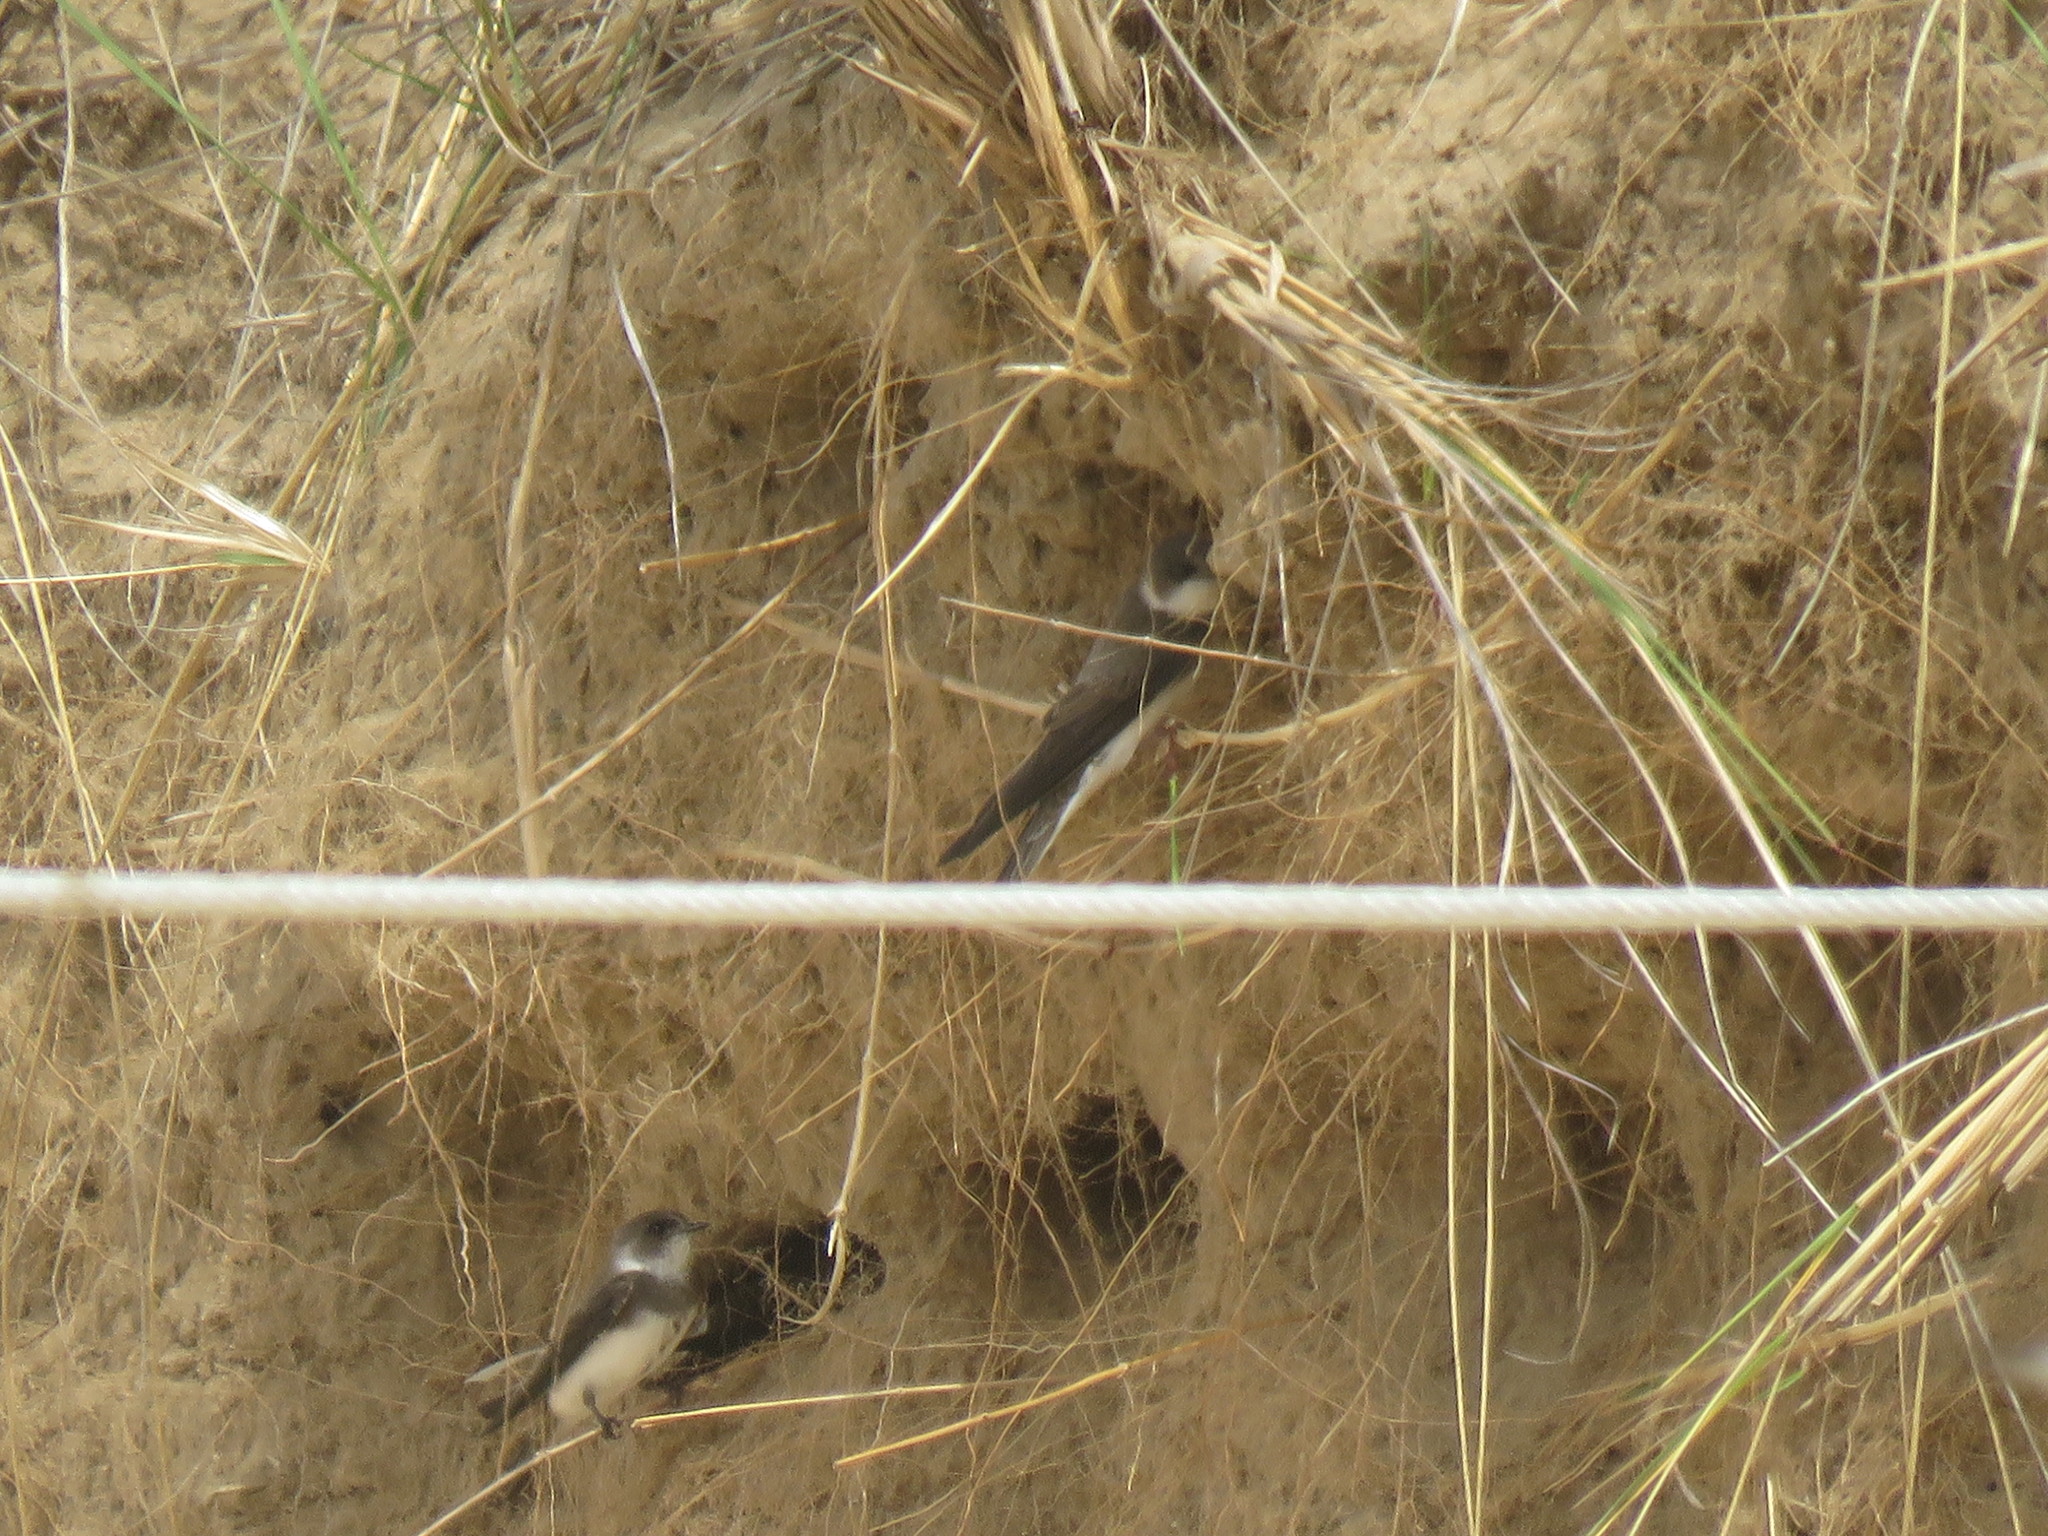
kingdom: Animalia
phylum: Chordata
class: Aves
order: Passeriformes
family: Hirundinidae
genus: Riparia
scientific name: Riparia riparia
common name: Sand martin
